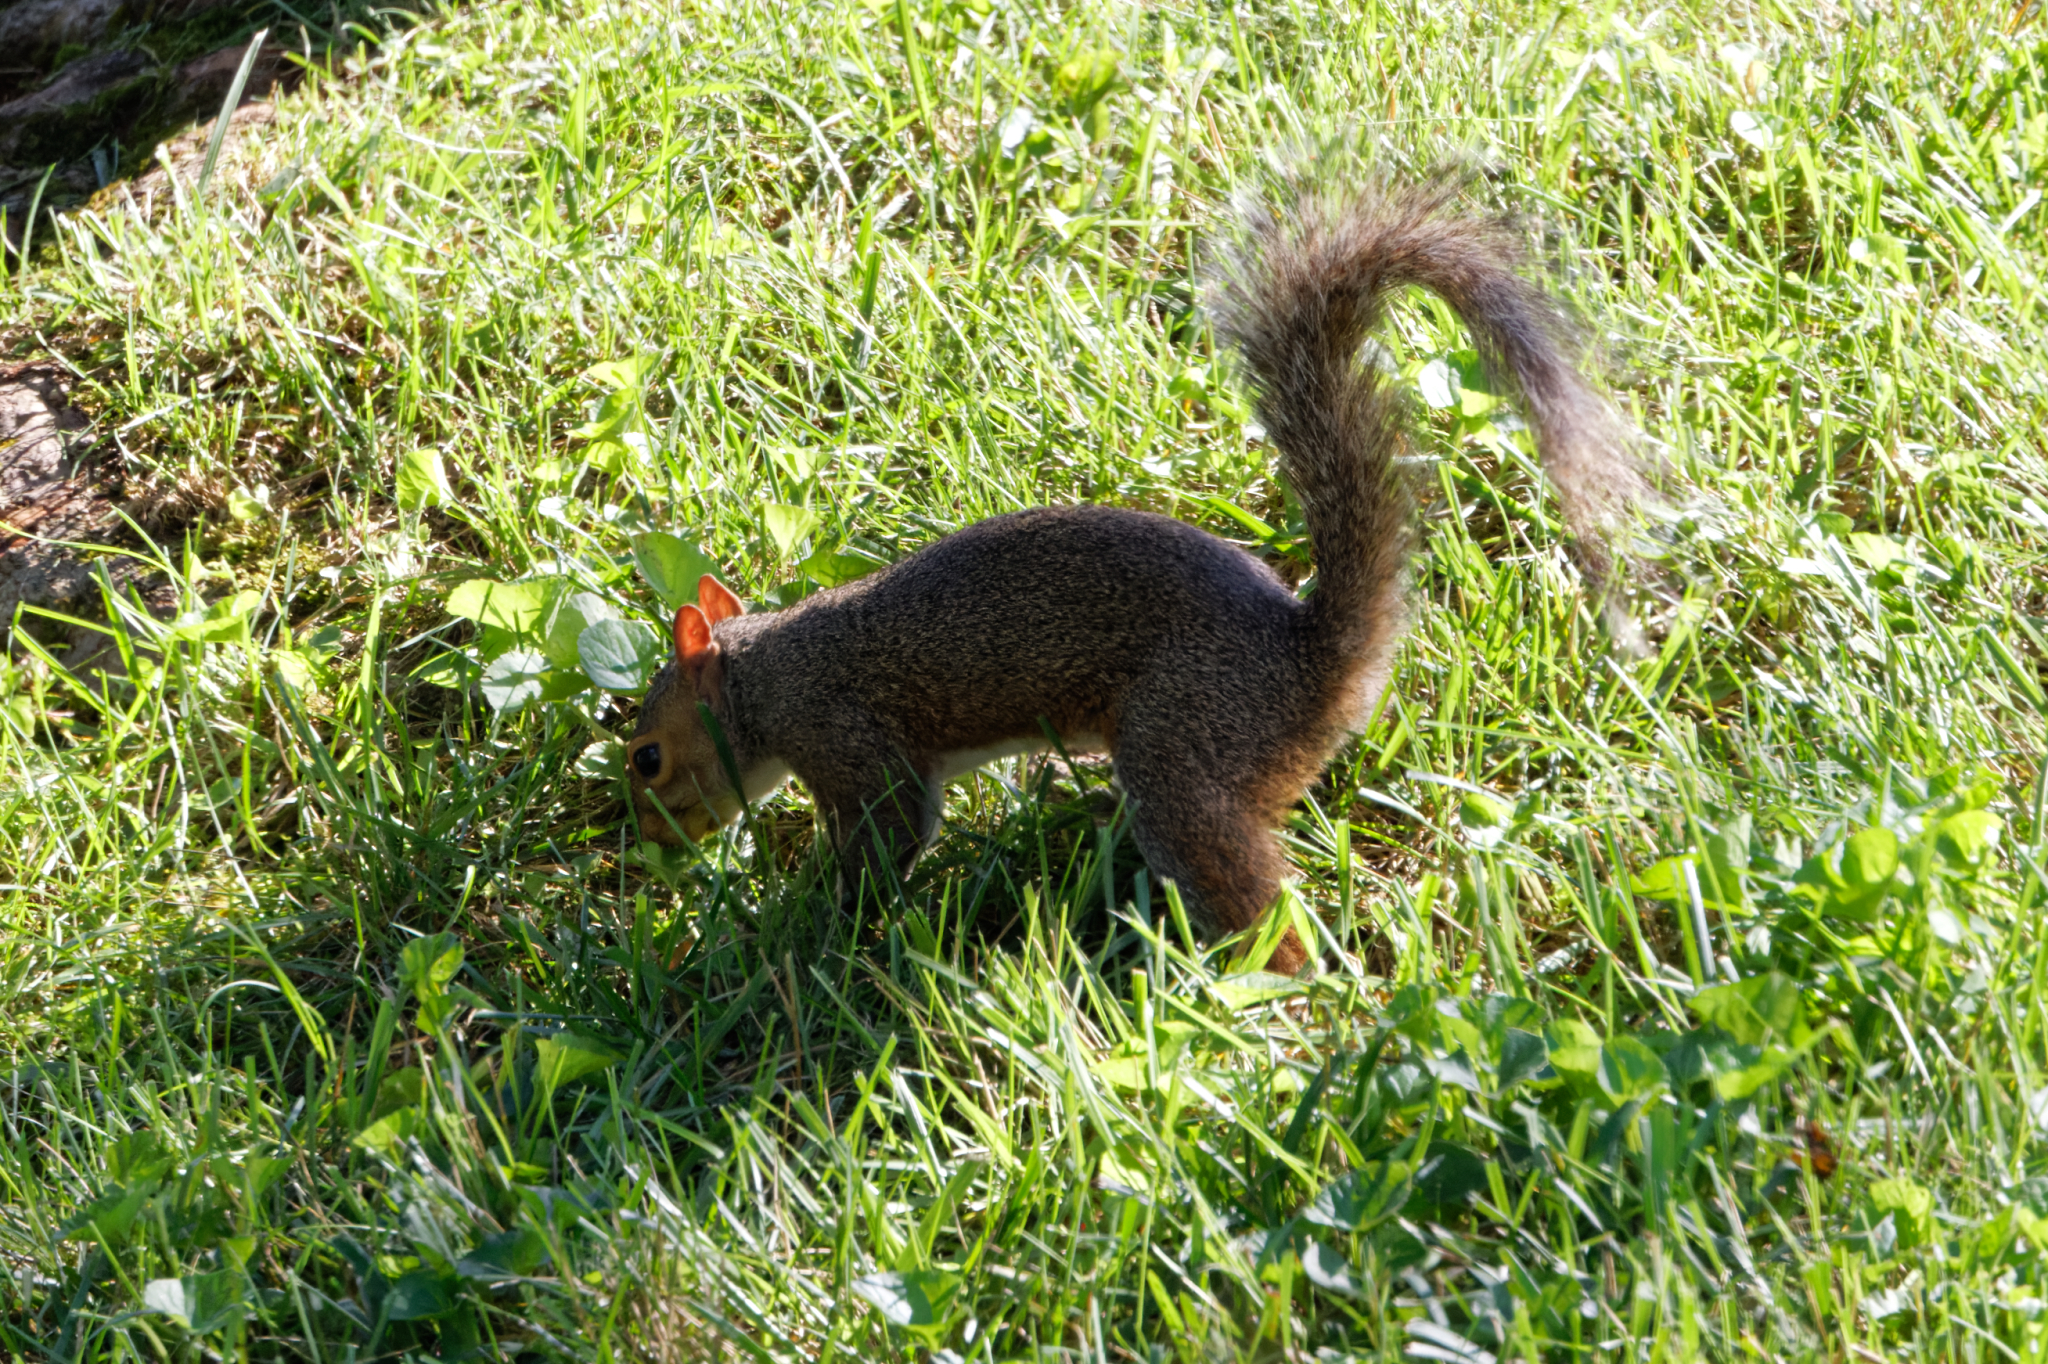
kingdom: Animalia
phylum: Chordata
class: Mammalia
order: Rodentia
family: Sciuridae
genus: Sciurus
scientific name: Sciurus carolinensis
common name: Eastern gray squirrel
